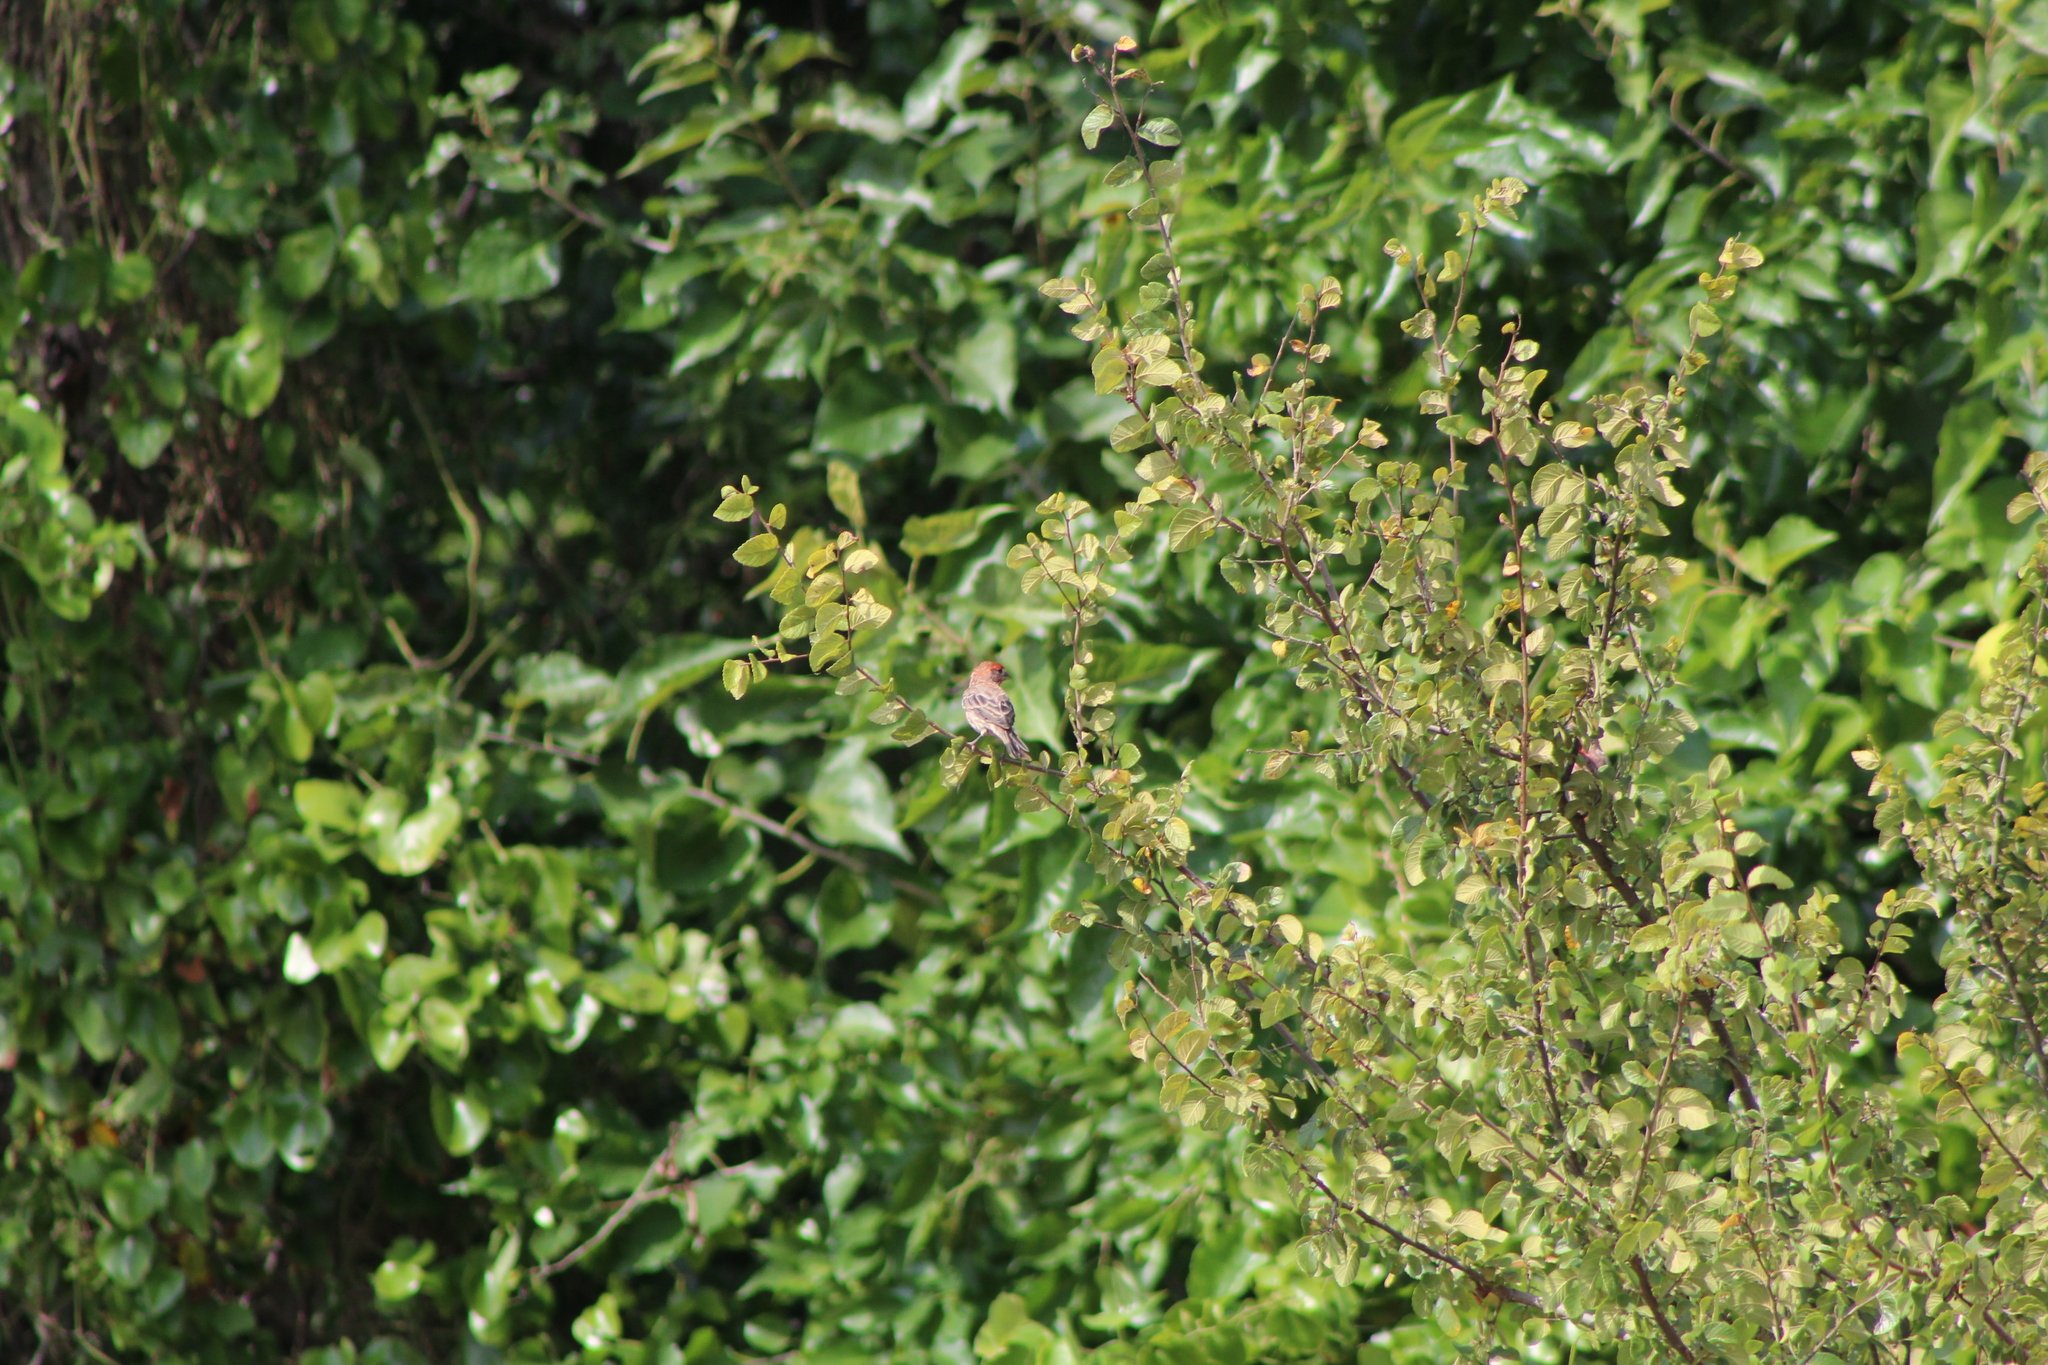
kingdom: Animalia
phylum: Chordata
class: Aves
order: Passeriformes
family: Fringillidae
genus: Haemorhous
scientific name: Haemorhous mexicanus
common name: House finch
